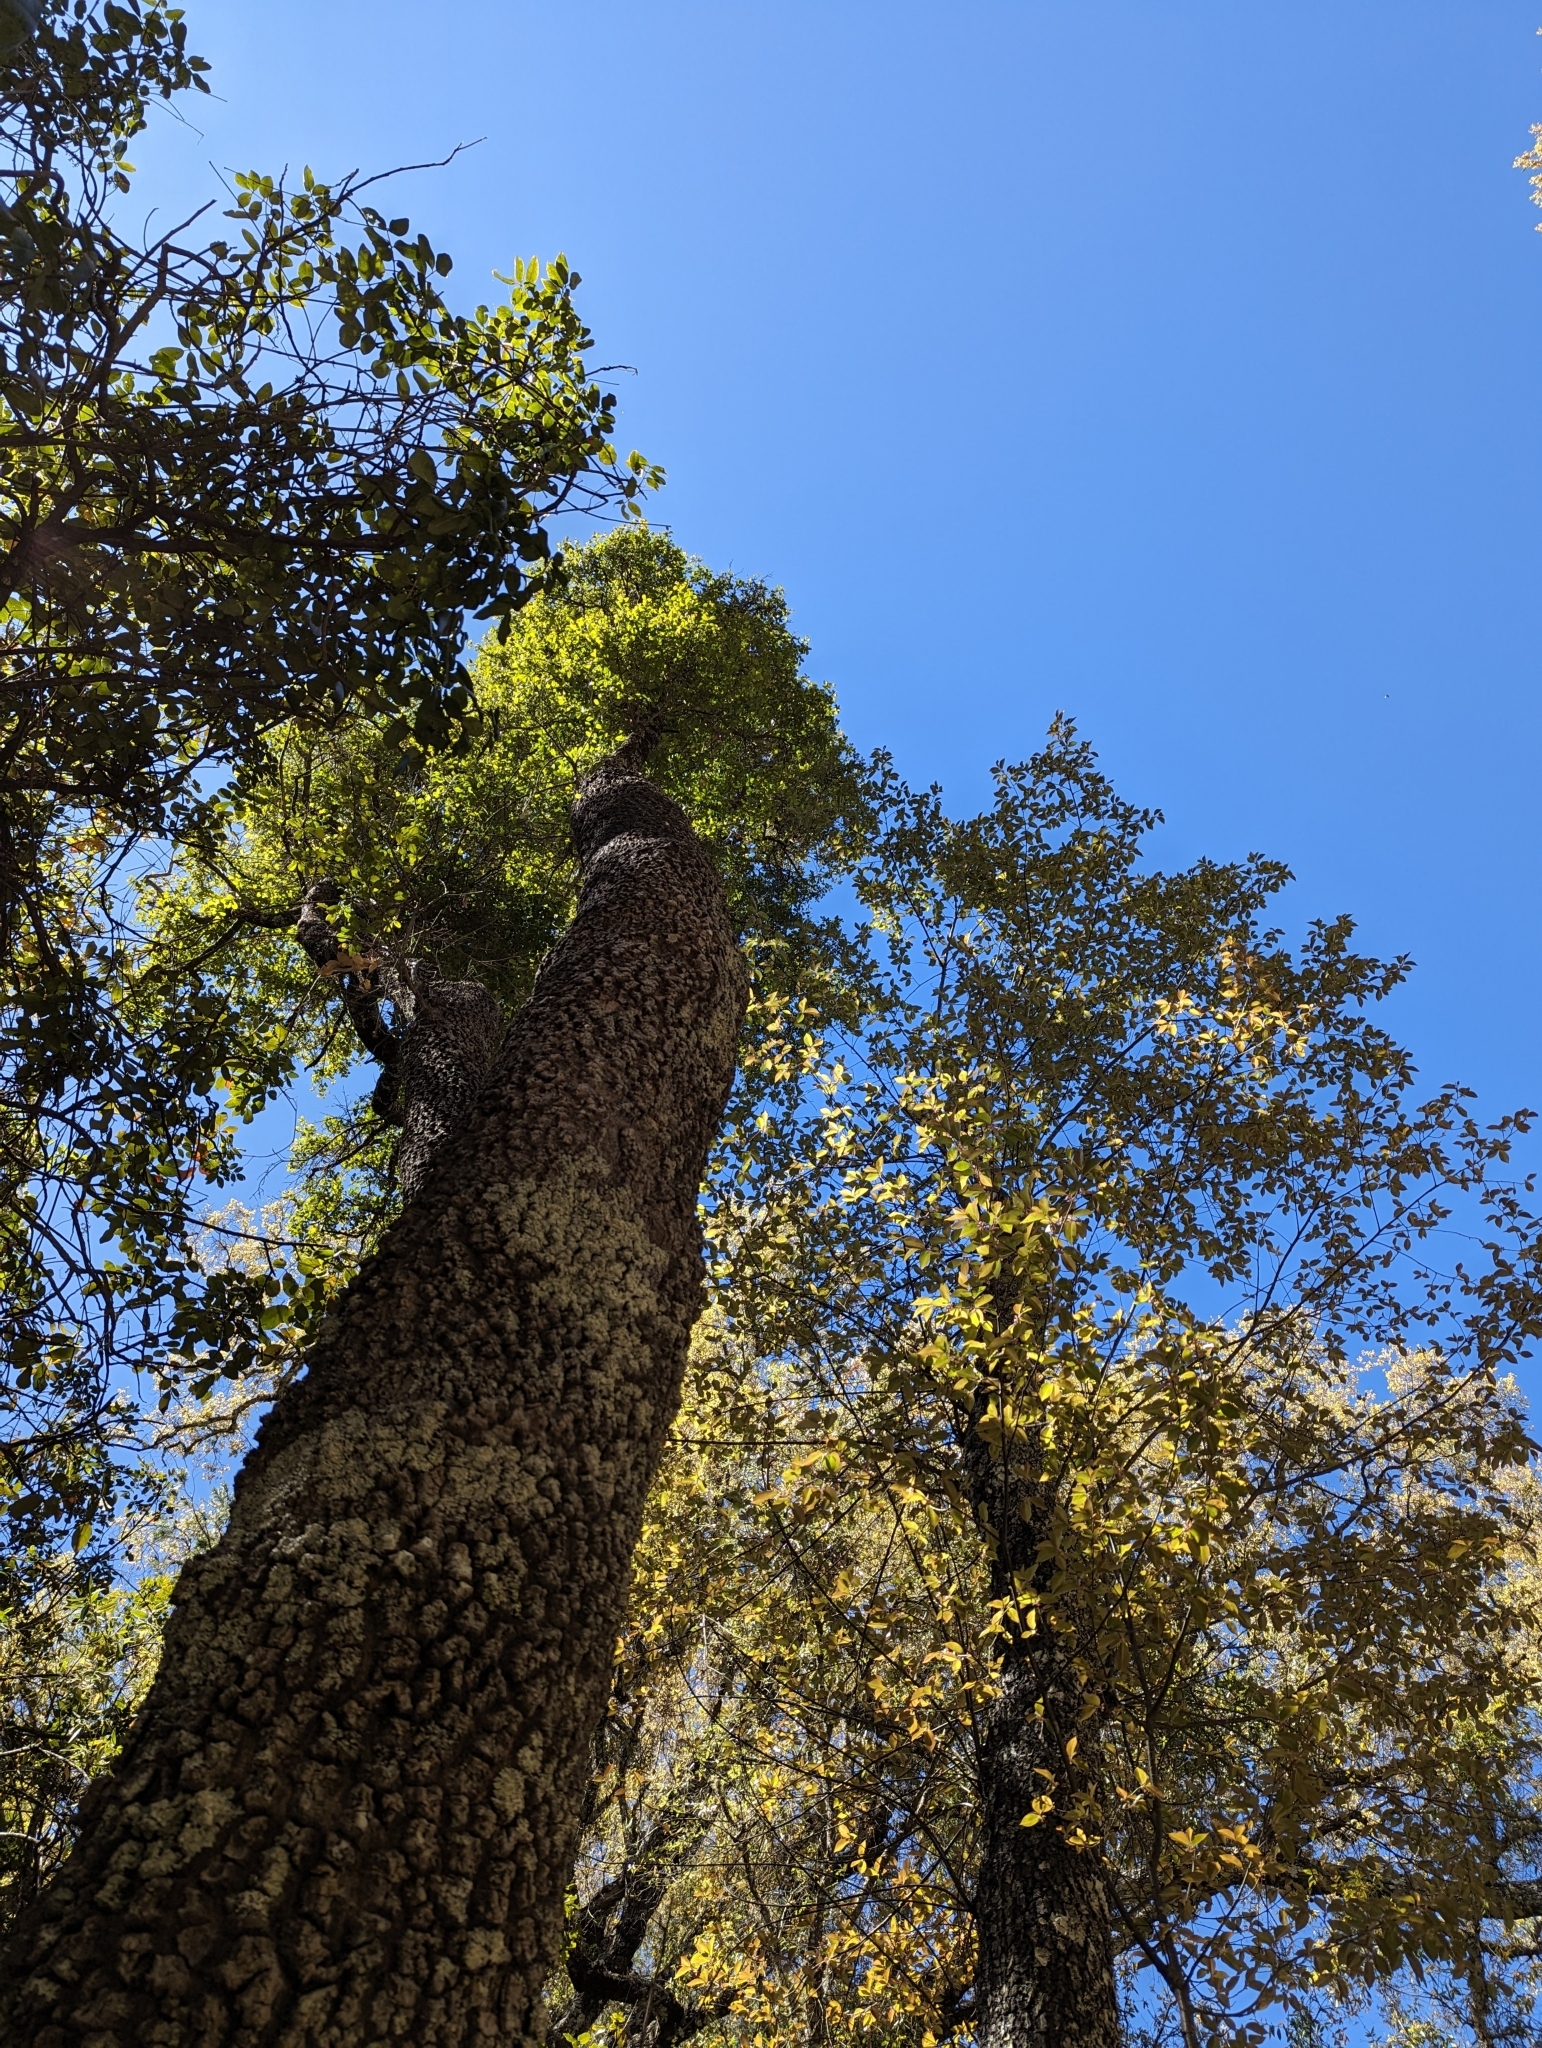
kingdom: Plantae
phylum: Tracheophyta
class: Magnoliopsida
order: Aquifoliales
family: Aquifoliaceae
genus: Ilex
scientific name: Ilex brandegeeana
